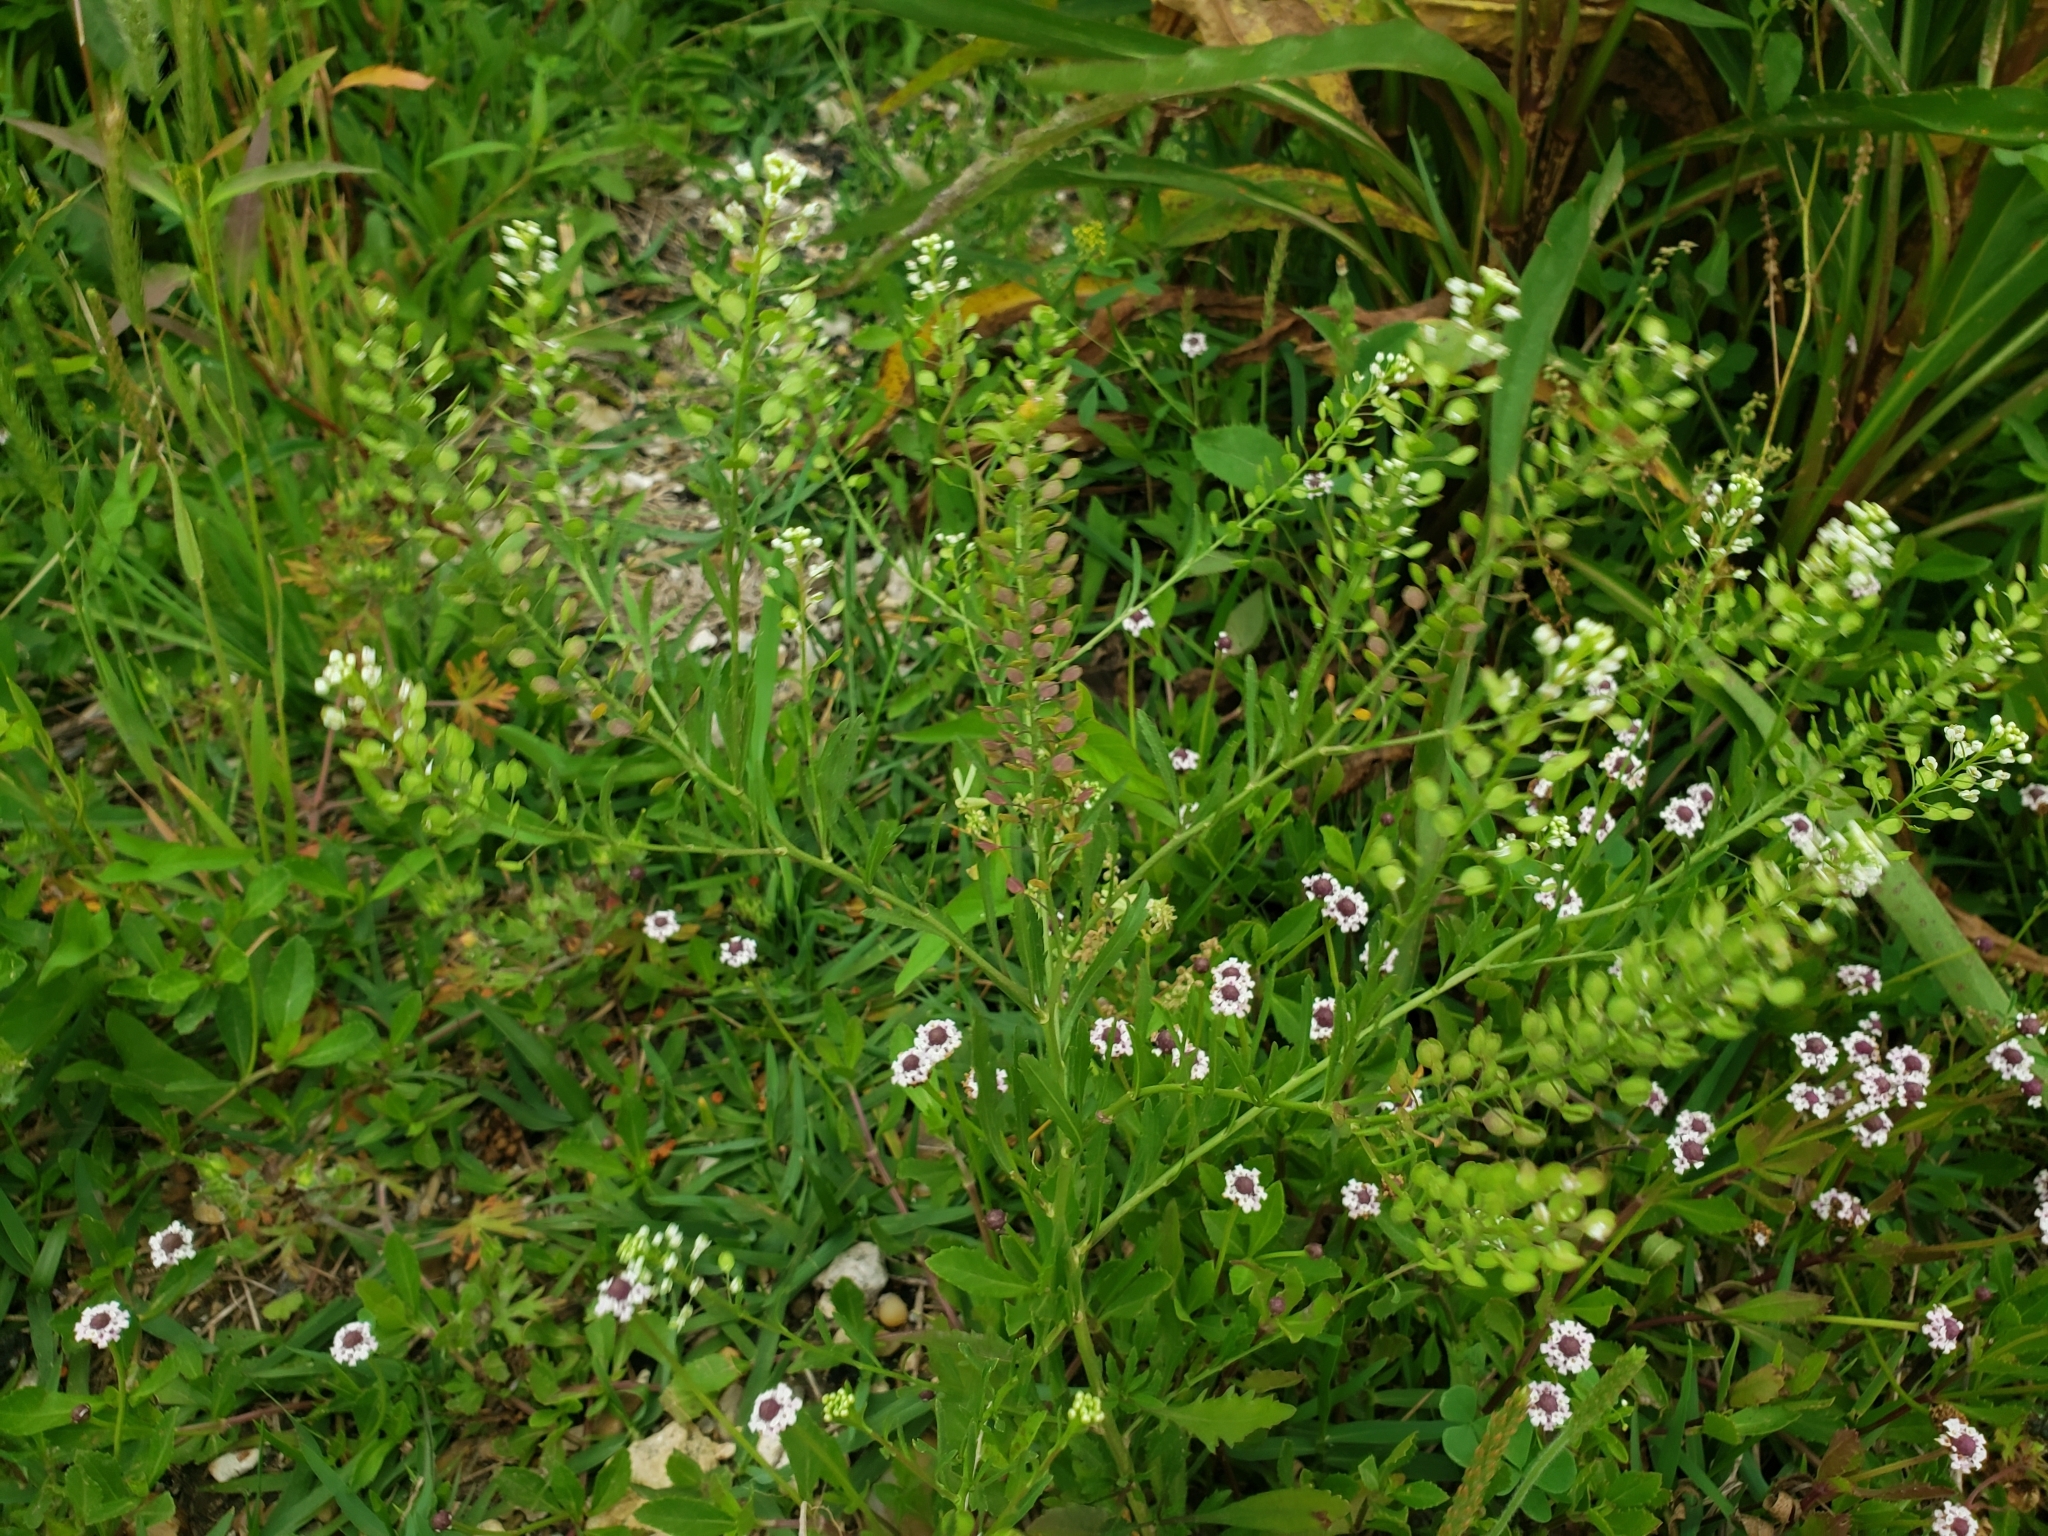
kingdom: Plantae
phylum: Tracheophyta
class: Magnoliopsida
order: Brassicales
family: Brassicaceae
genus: Lepidium
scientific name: Lepidium virginicum
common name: Least pepperwort
